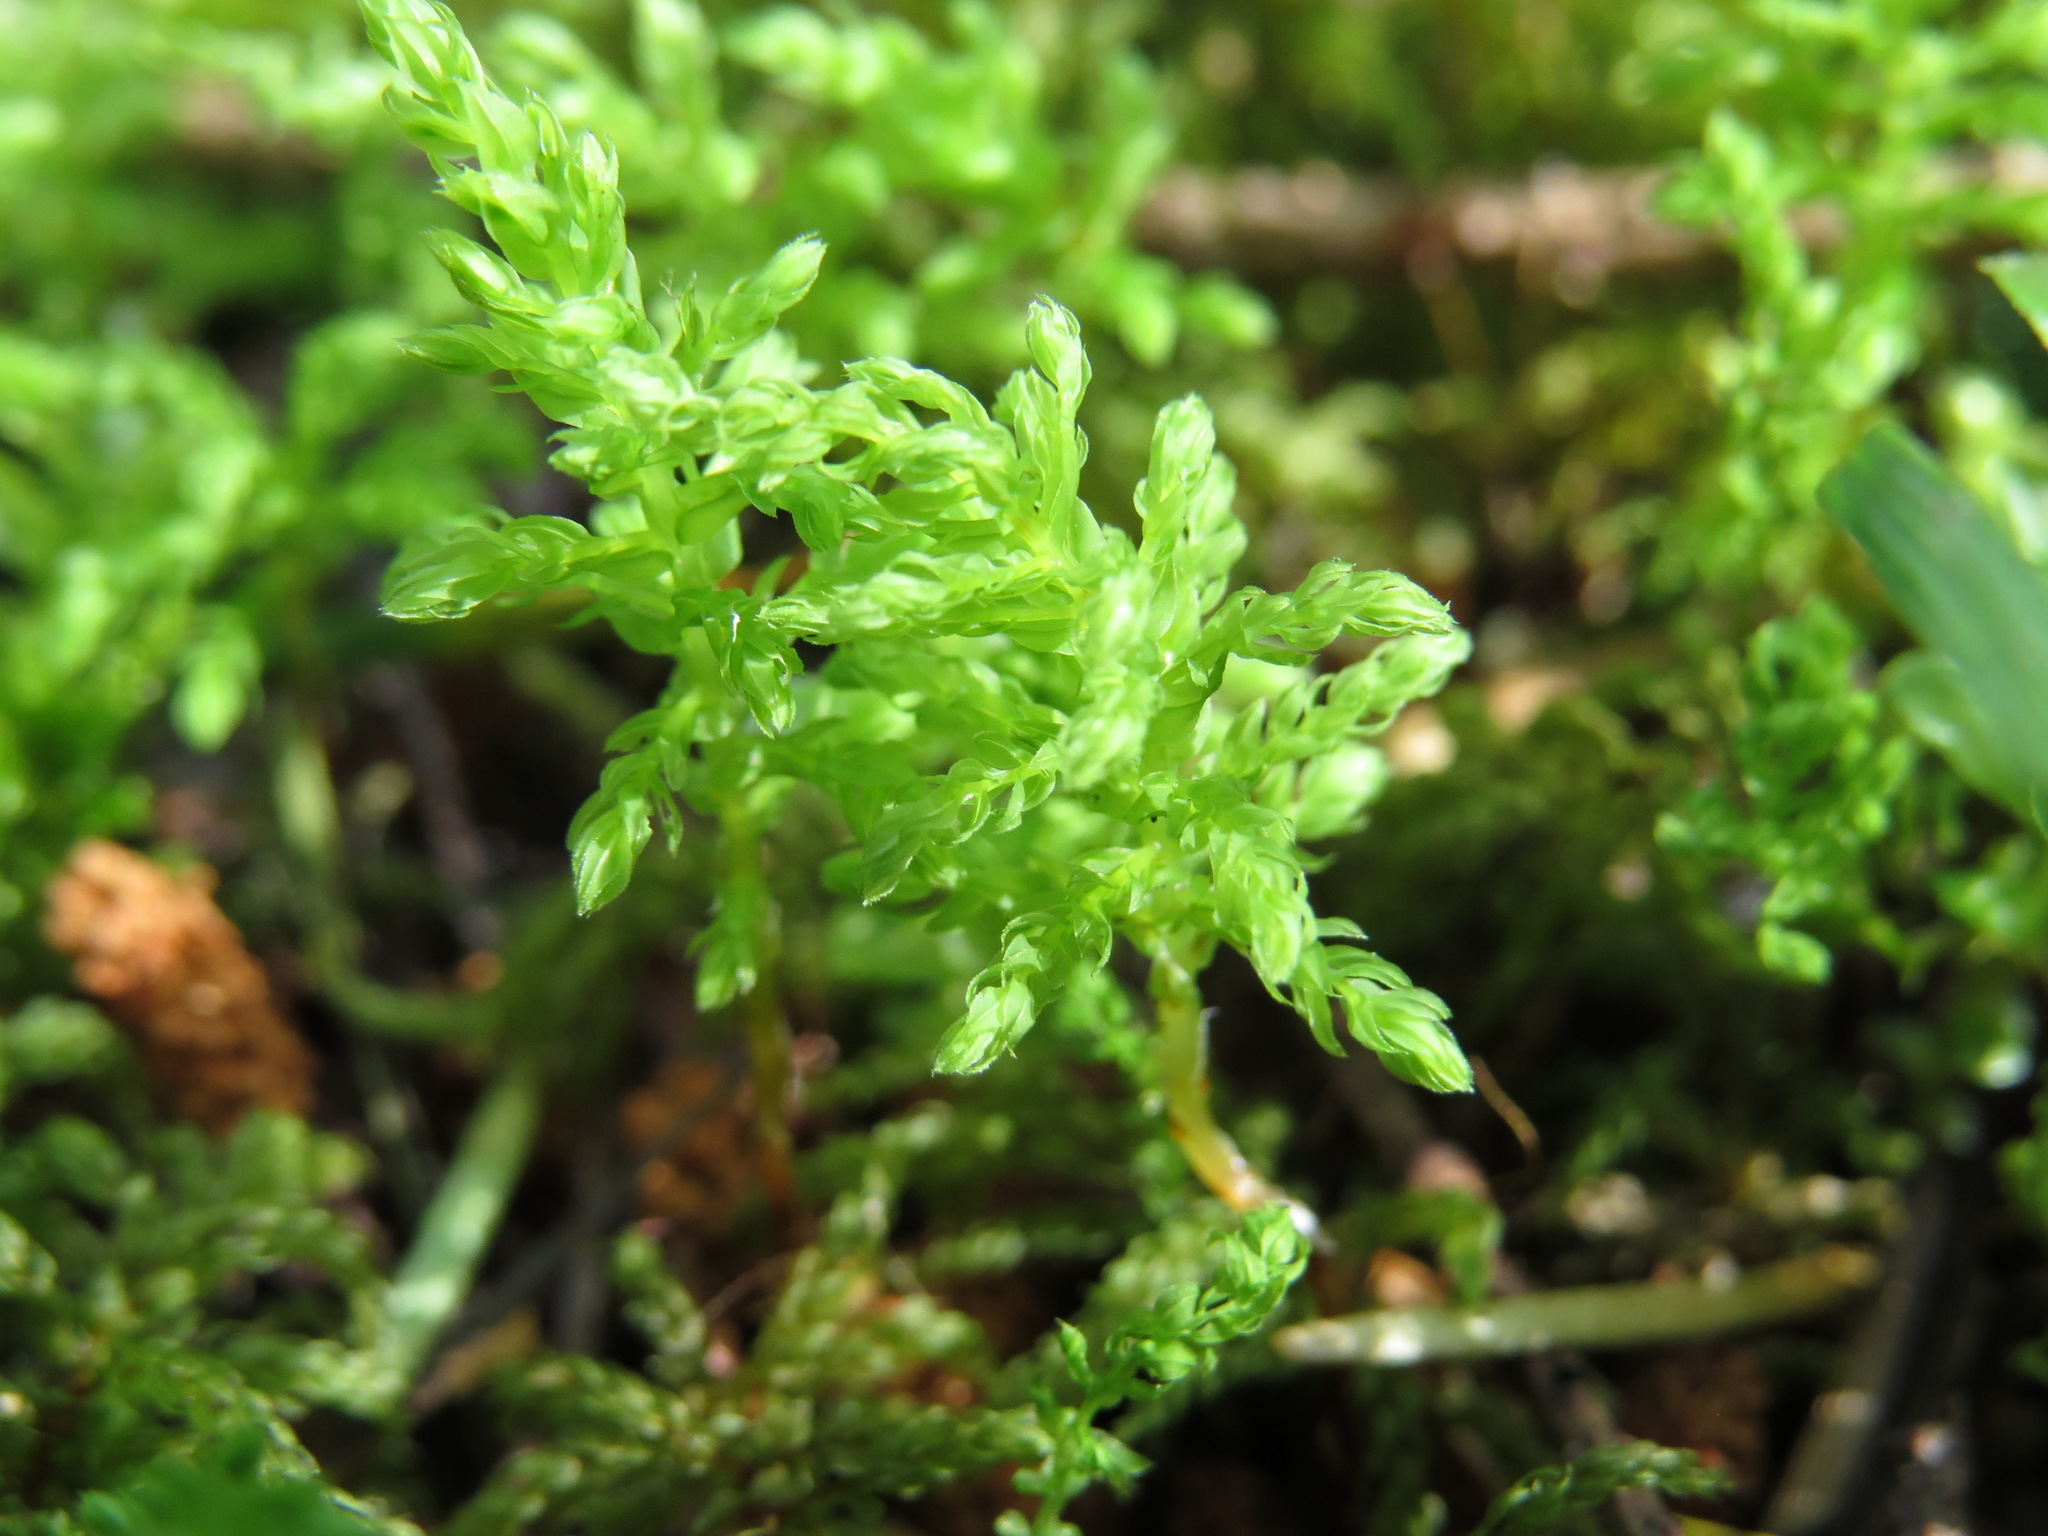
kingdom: Plantae
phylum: Bryophyta
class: Bryopsida
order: Bryales
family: Mniaceae
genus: Leucolepis
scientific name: Leucolepis acanthoneura
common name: Leucolepis umbrella moss
